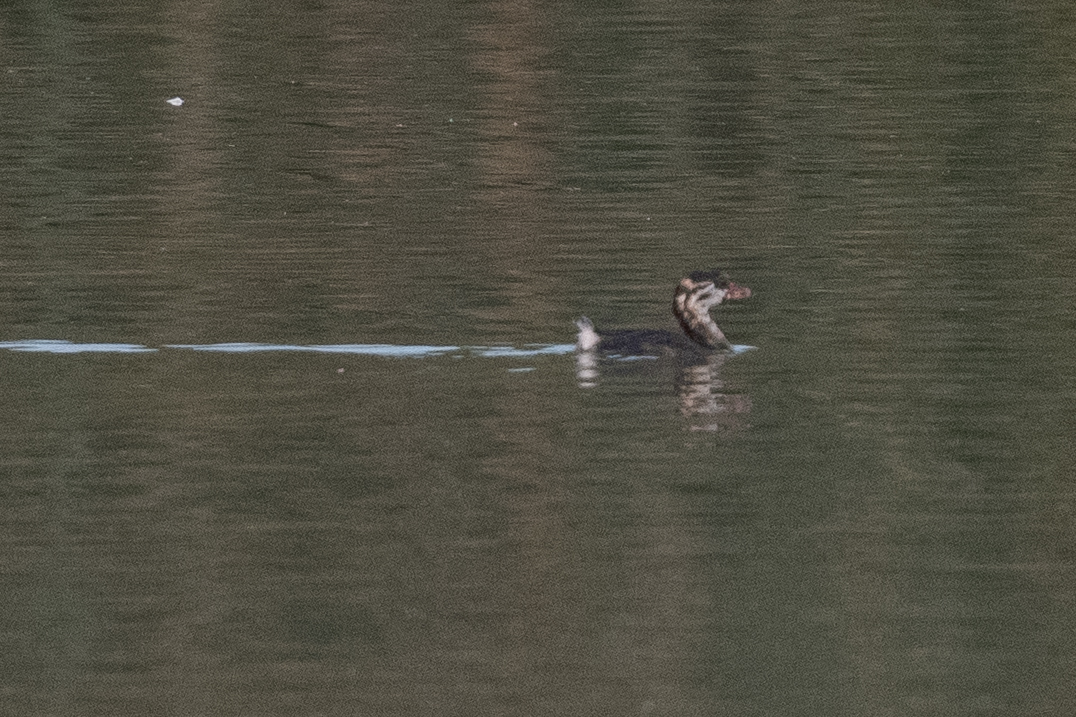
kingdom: Animalia
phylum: Chordata
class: Aves
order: Podicipediformes
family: Podicipedidae
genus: Podilymbus
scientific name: Podilymbus podiceps
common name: Pied-billed grebe
